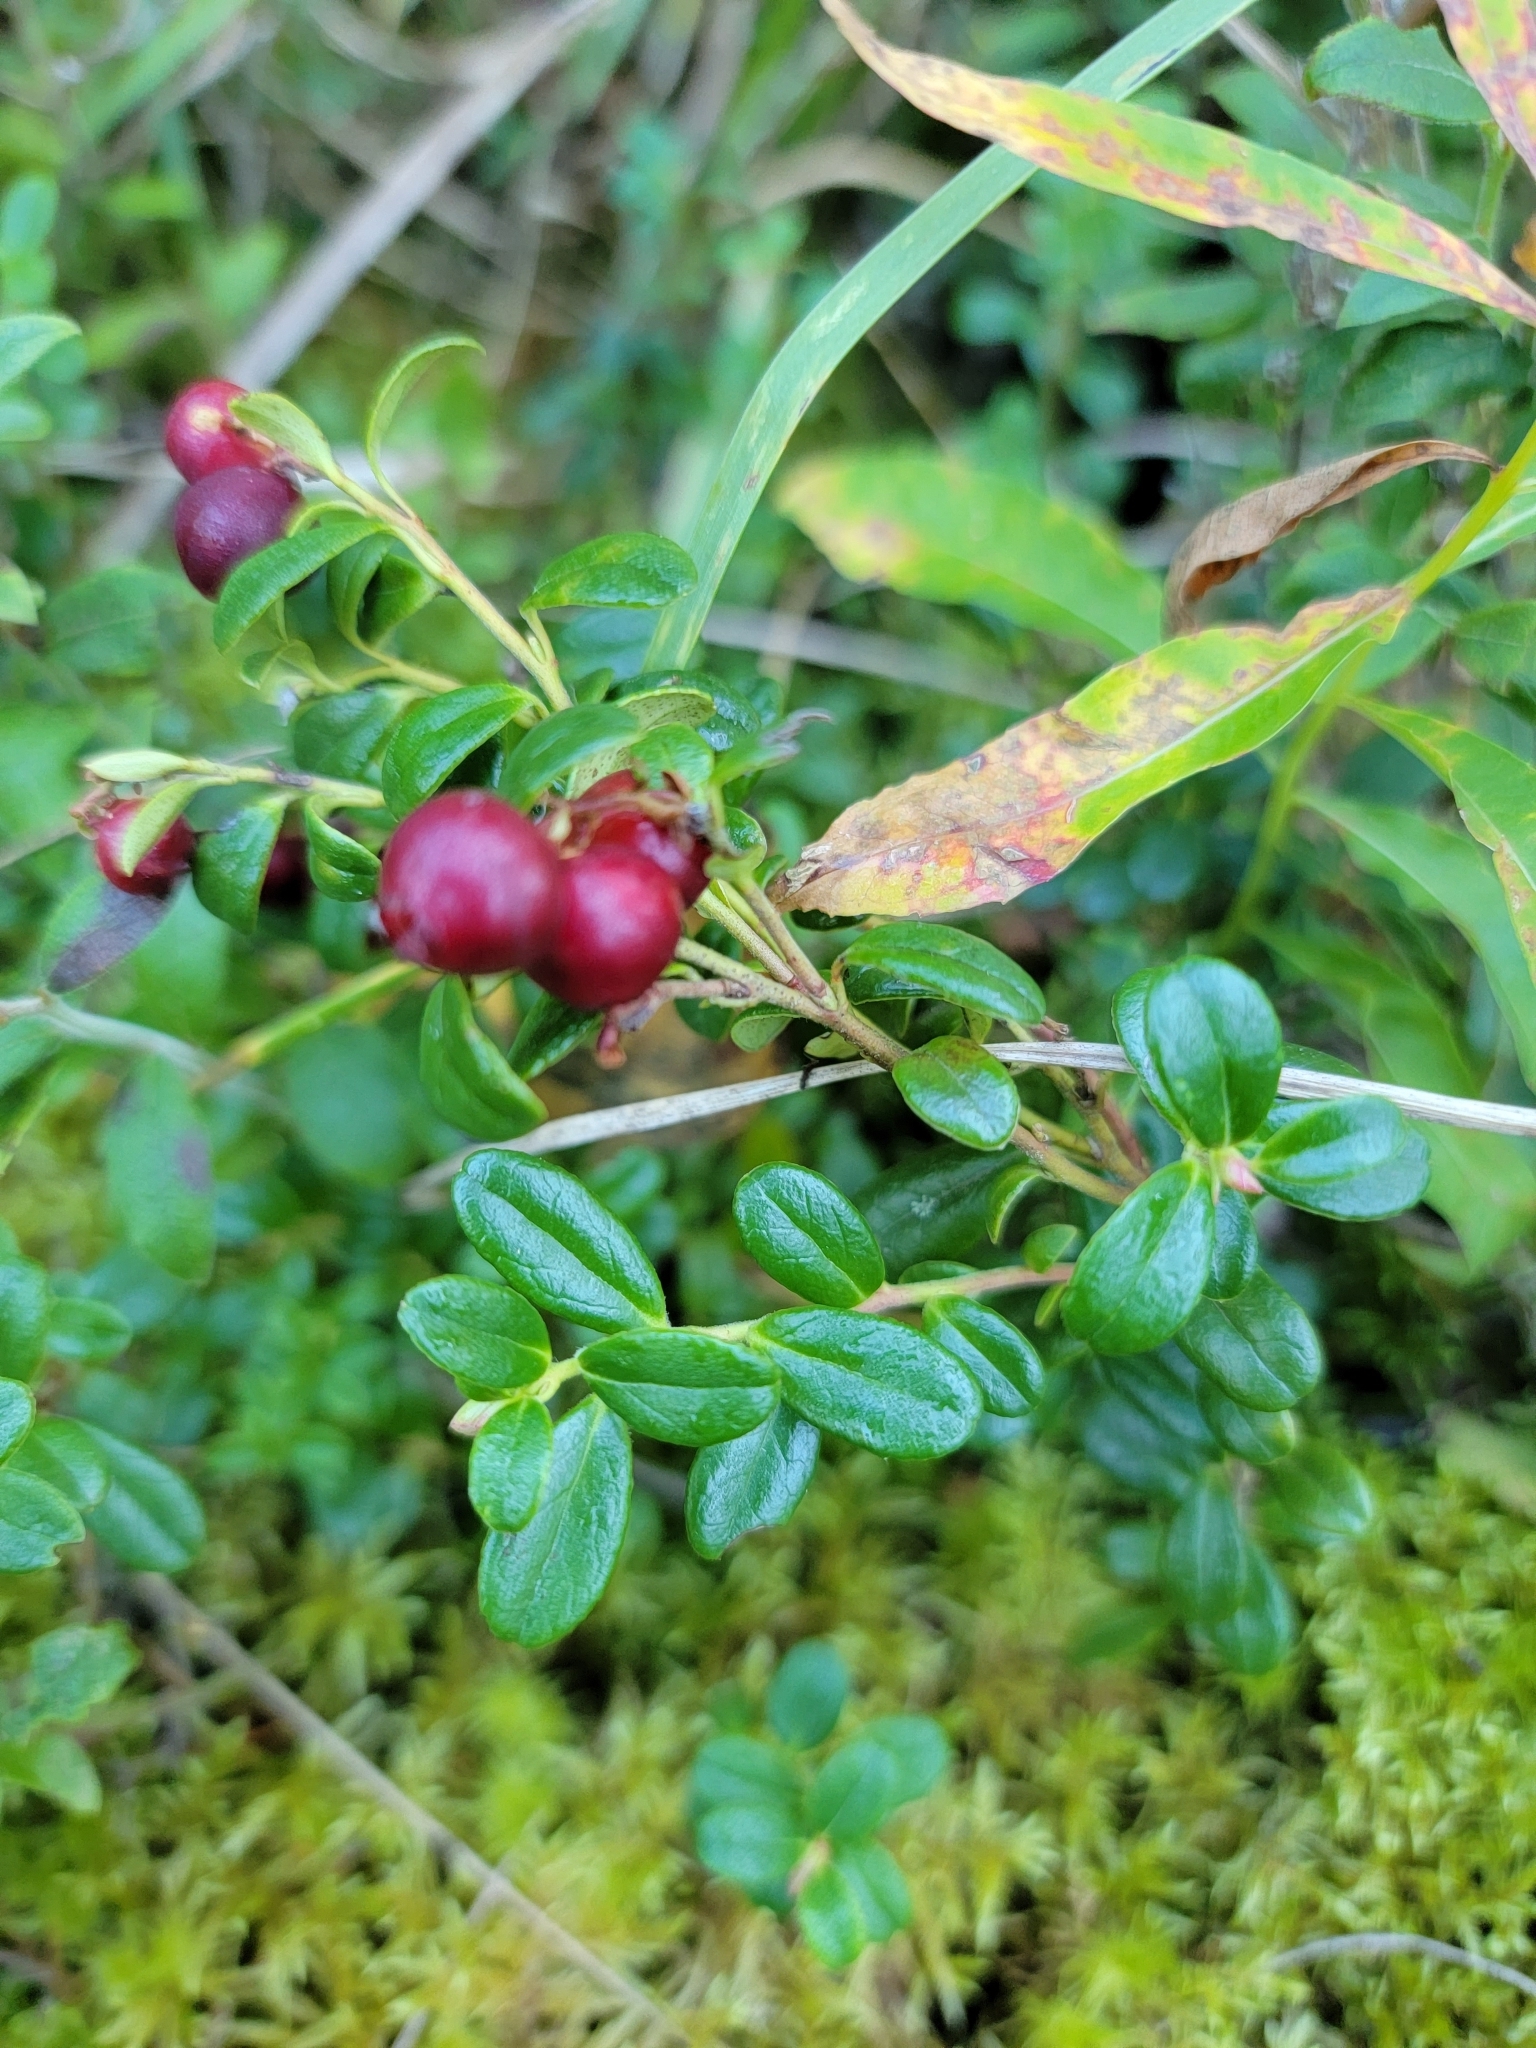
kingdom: Plantae
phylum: Tracheophyta
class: Magnoliopsida
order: Ericales
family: Ericaceae
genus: Vaccinium
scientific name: Vaccinium vitis-idaea
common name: Cowberry
